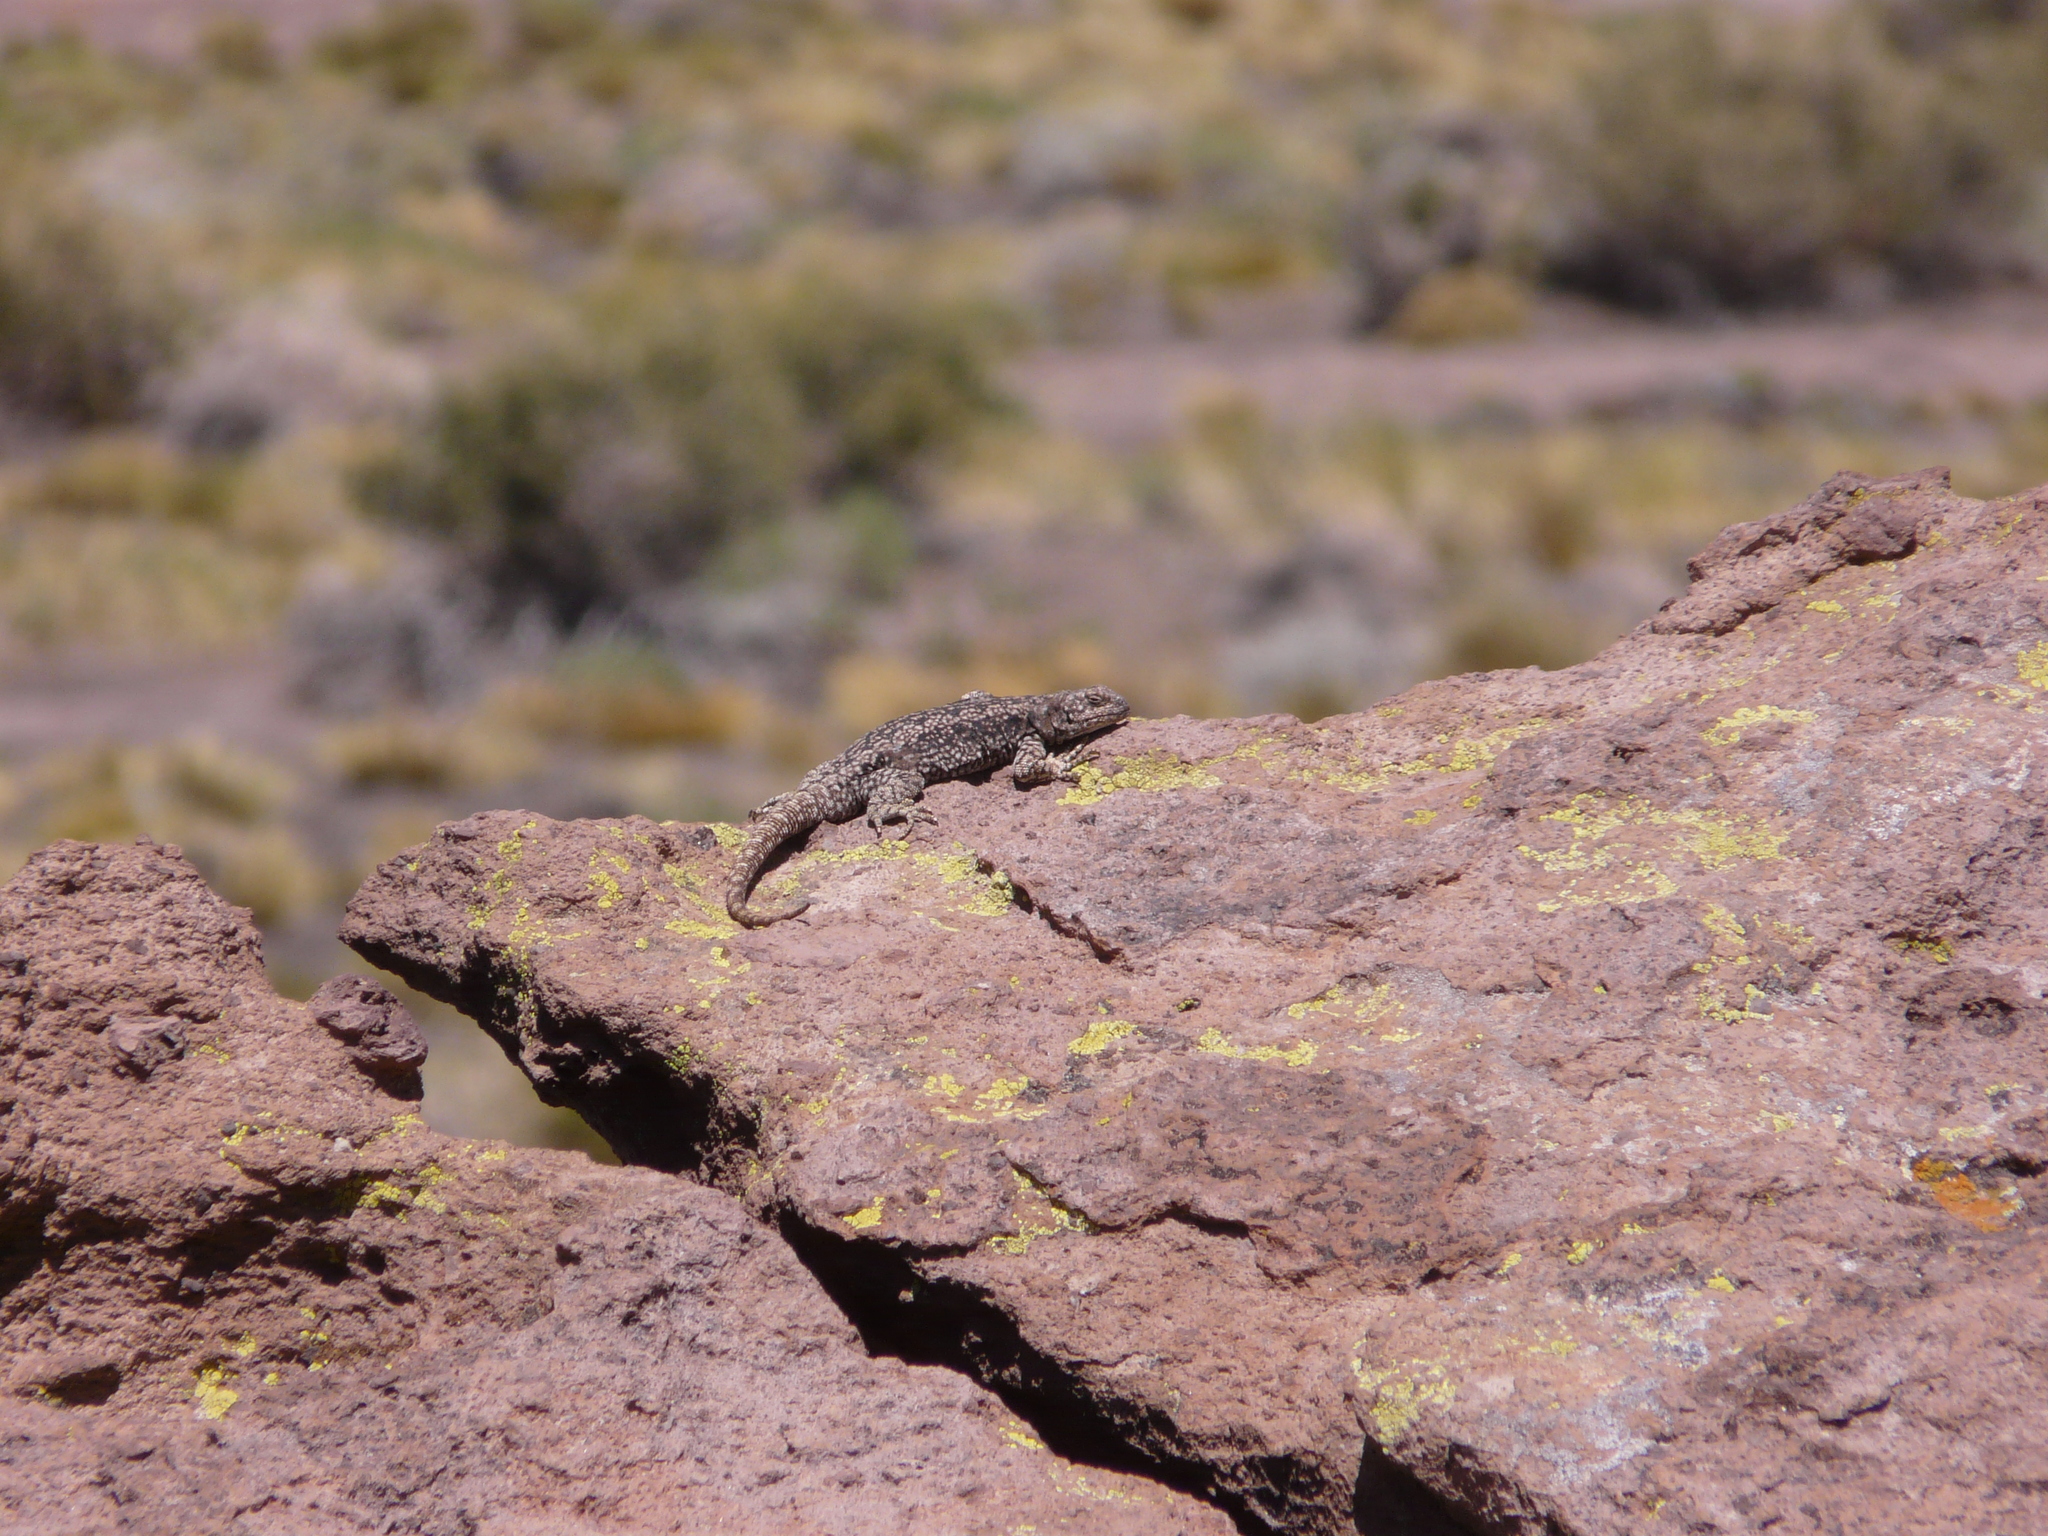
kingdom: Animalia
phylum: Chordata
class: Squamata
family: Liolaemidae
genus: Phymaturus
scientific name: Phymaturus payuniae
